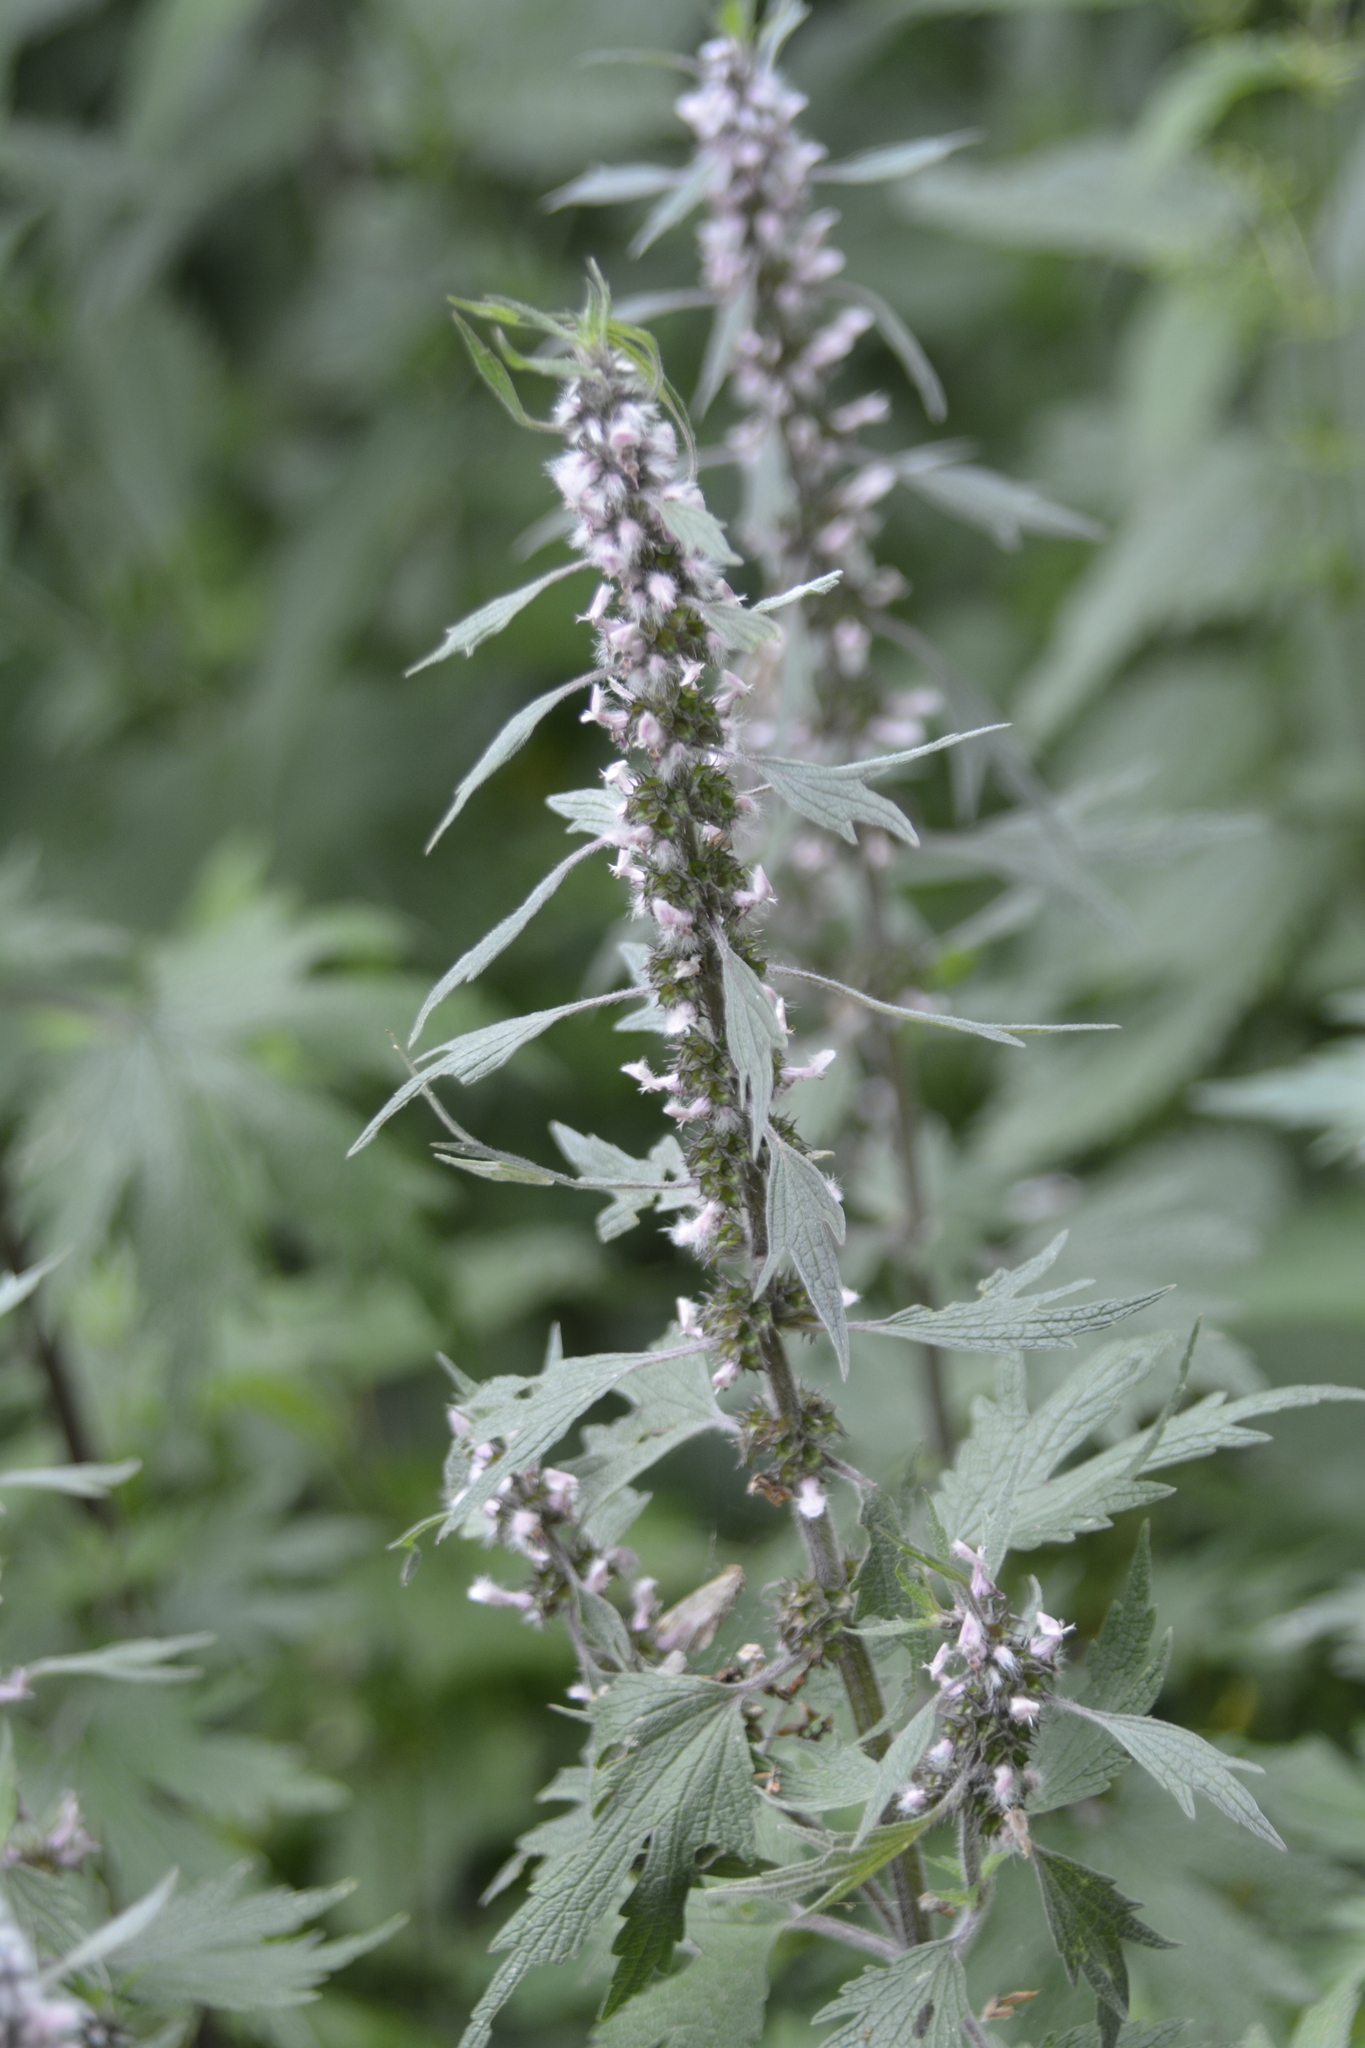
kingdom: Plantae
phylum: Tracheophyta
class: Magnoliopsida
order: Lamiales
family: Lamiaceae
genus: Leonurus
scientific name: Leonurus quinquelobatus
